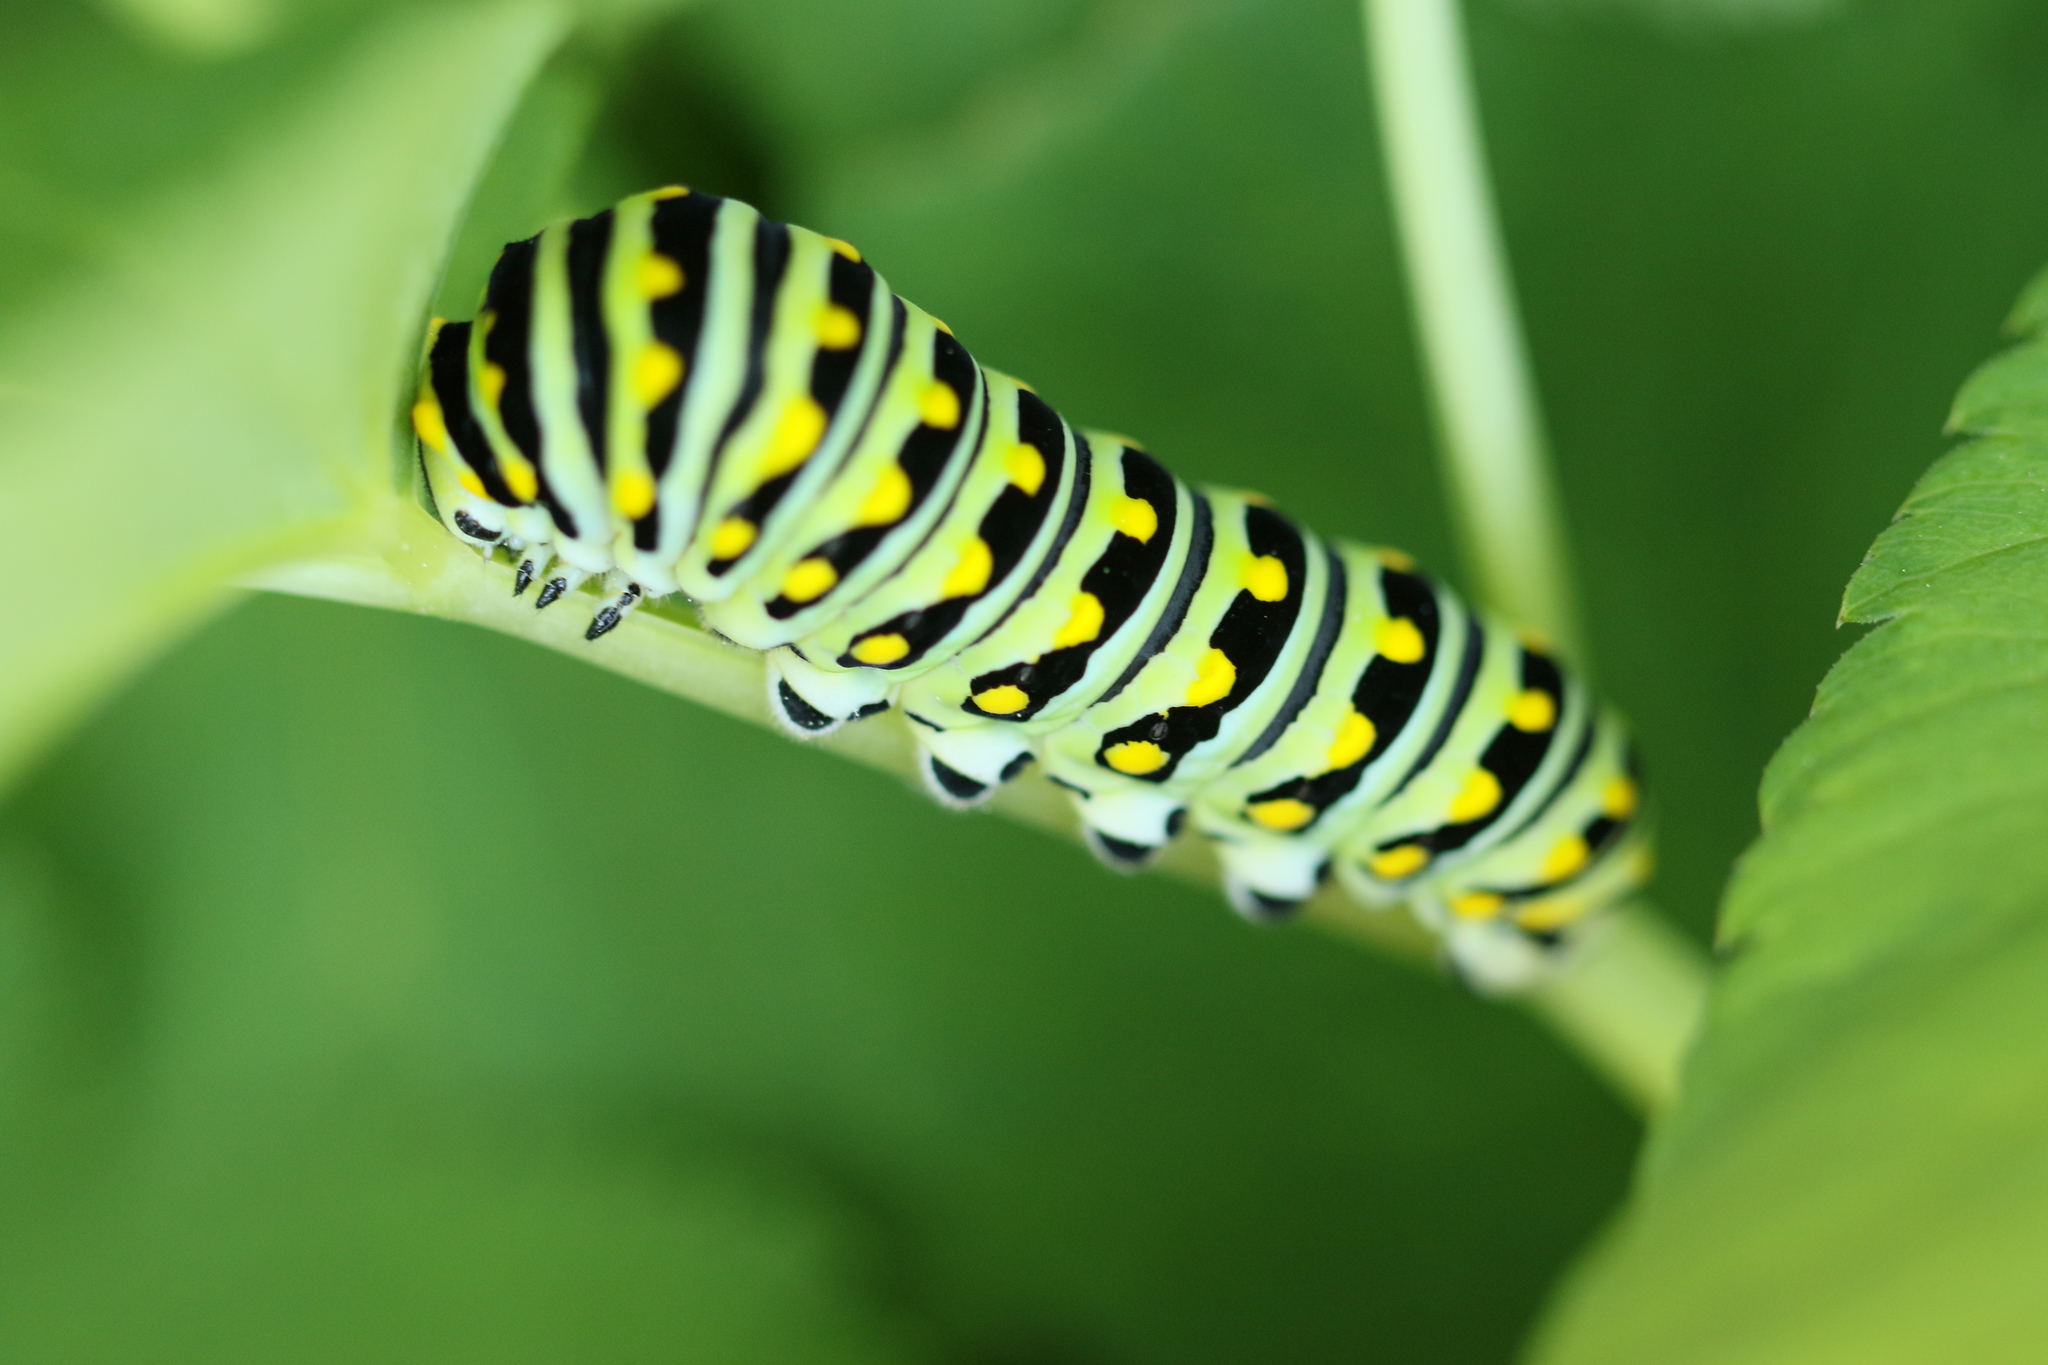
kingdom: Animalia
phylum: Arthropoda
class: Insecta
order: Lepidoptera
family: Papilionidae
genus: Papilio
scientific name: Papilio polyxenes
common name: Black swallowtail
